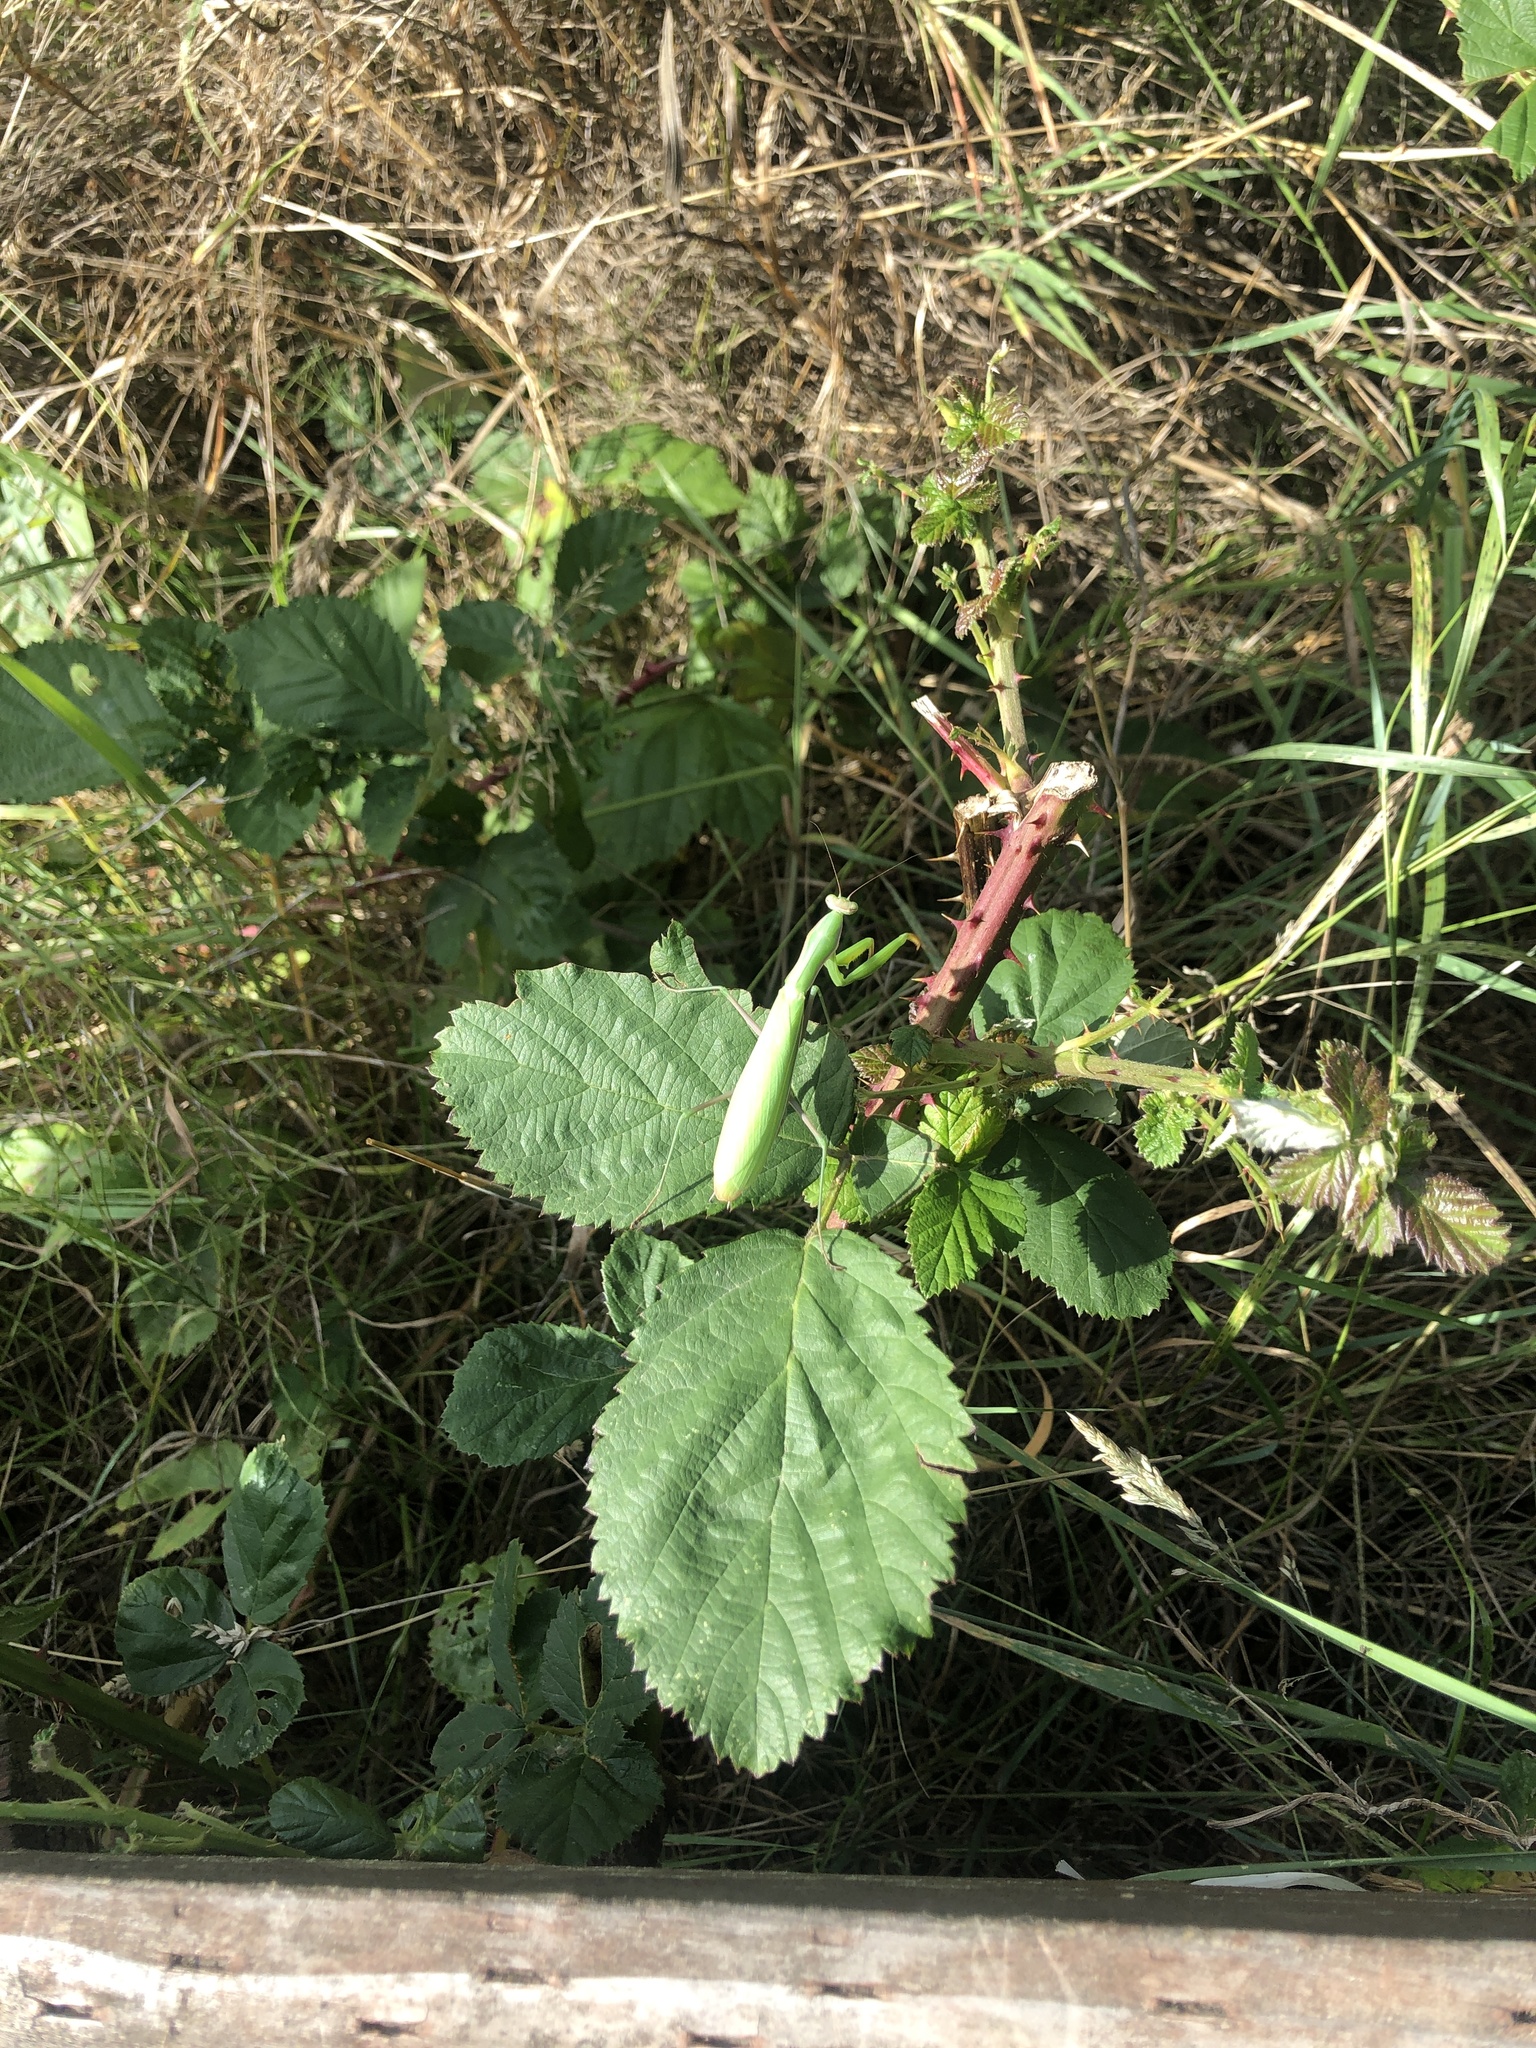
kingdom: Animalia
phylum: Arthropoda
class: Insecta
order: Mantodea
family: Mantidae
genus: Mantis
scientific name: Mantis religiosa
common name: Praying mantis
